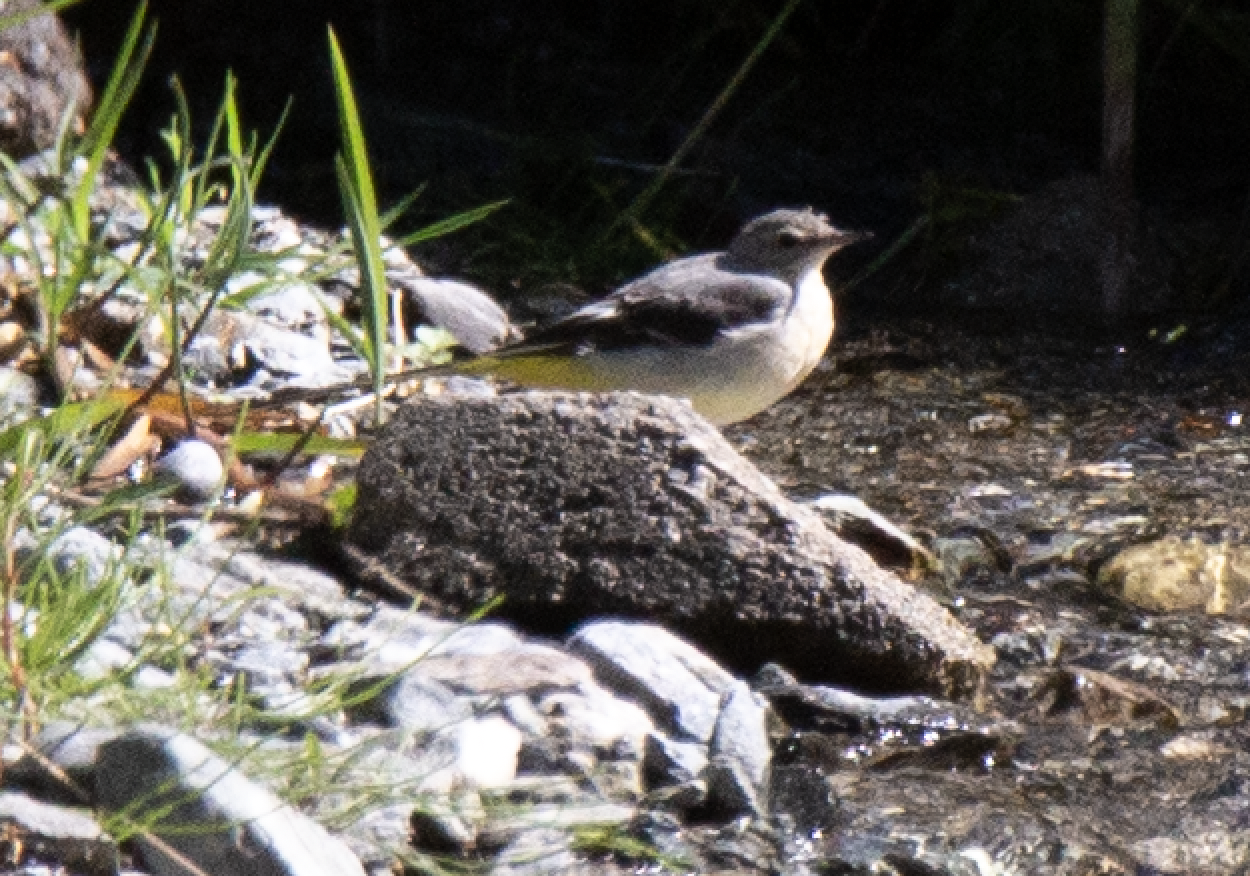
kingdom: Animalia
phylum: Chordata
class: Aves
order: Passeriformes
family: Motacillidae
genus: Motacilla
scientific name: Motacilla cinerea
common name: Grey wagtail
